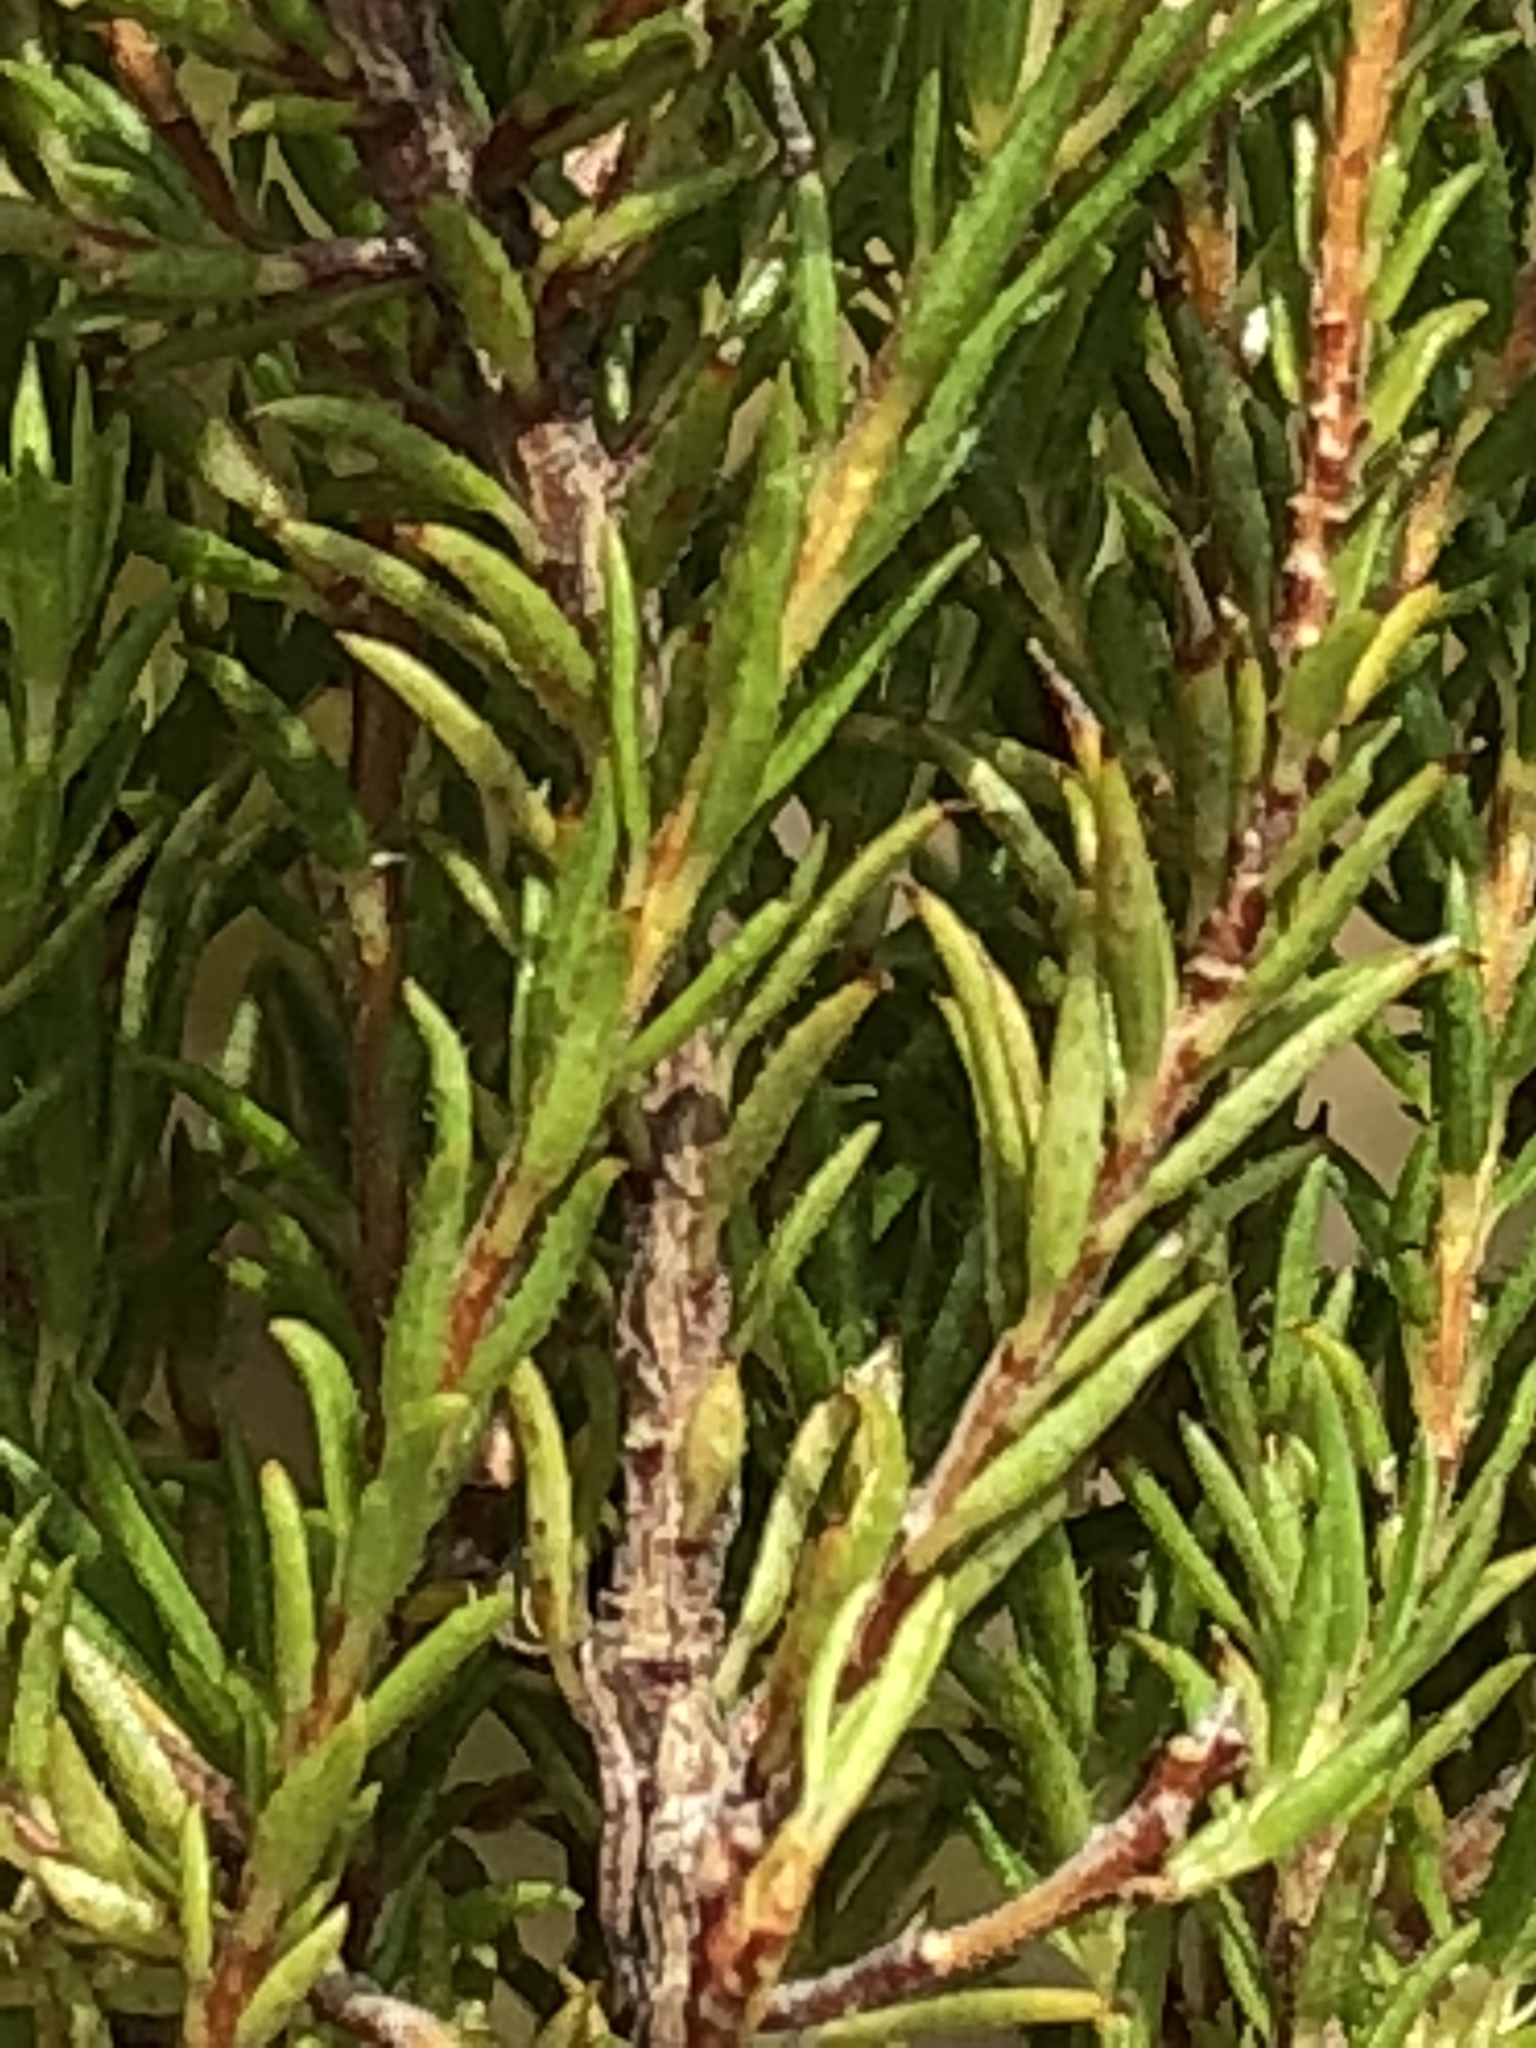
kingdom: Plantae
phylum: Tracheophyta
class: Magnoliopsida
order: Sapindales
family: Rutaceae
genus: Agathosma
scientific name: Agathosma bifida
